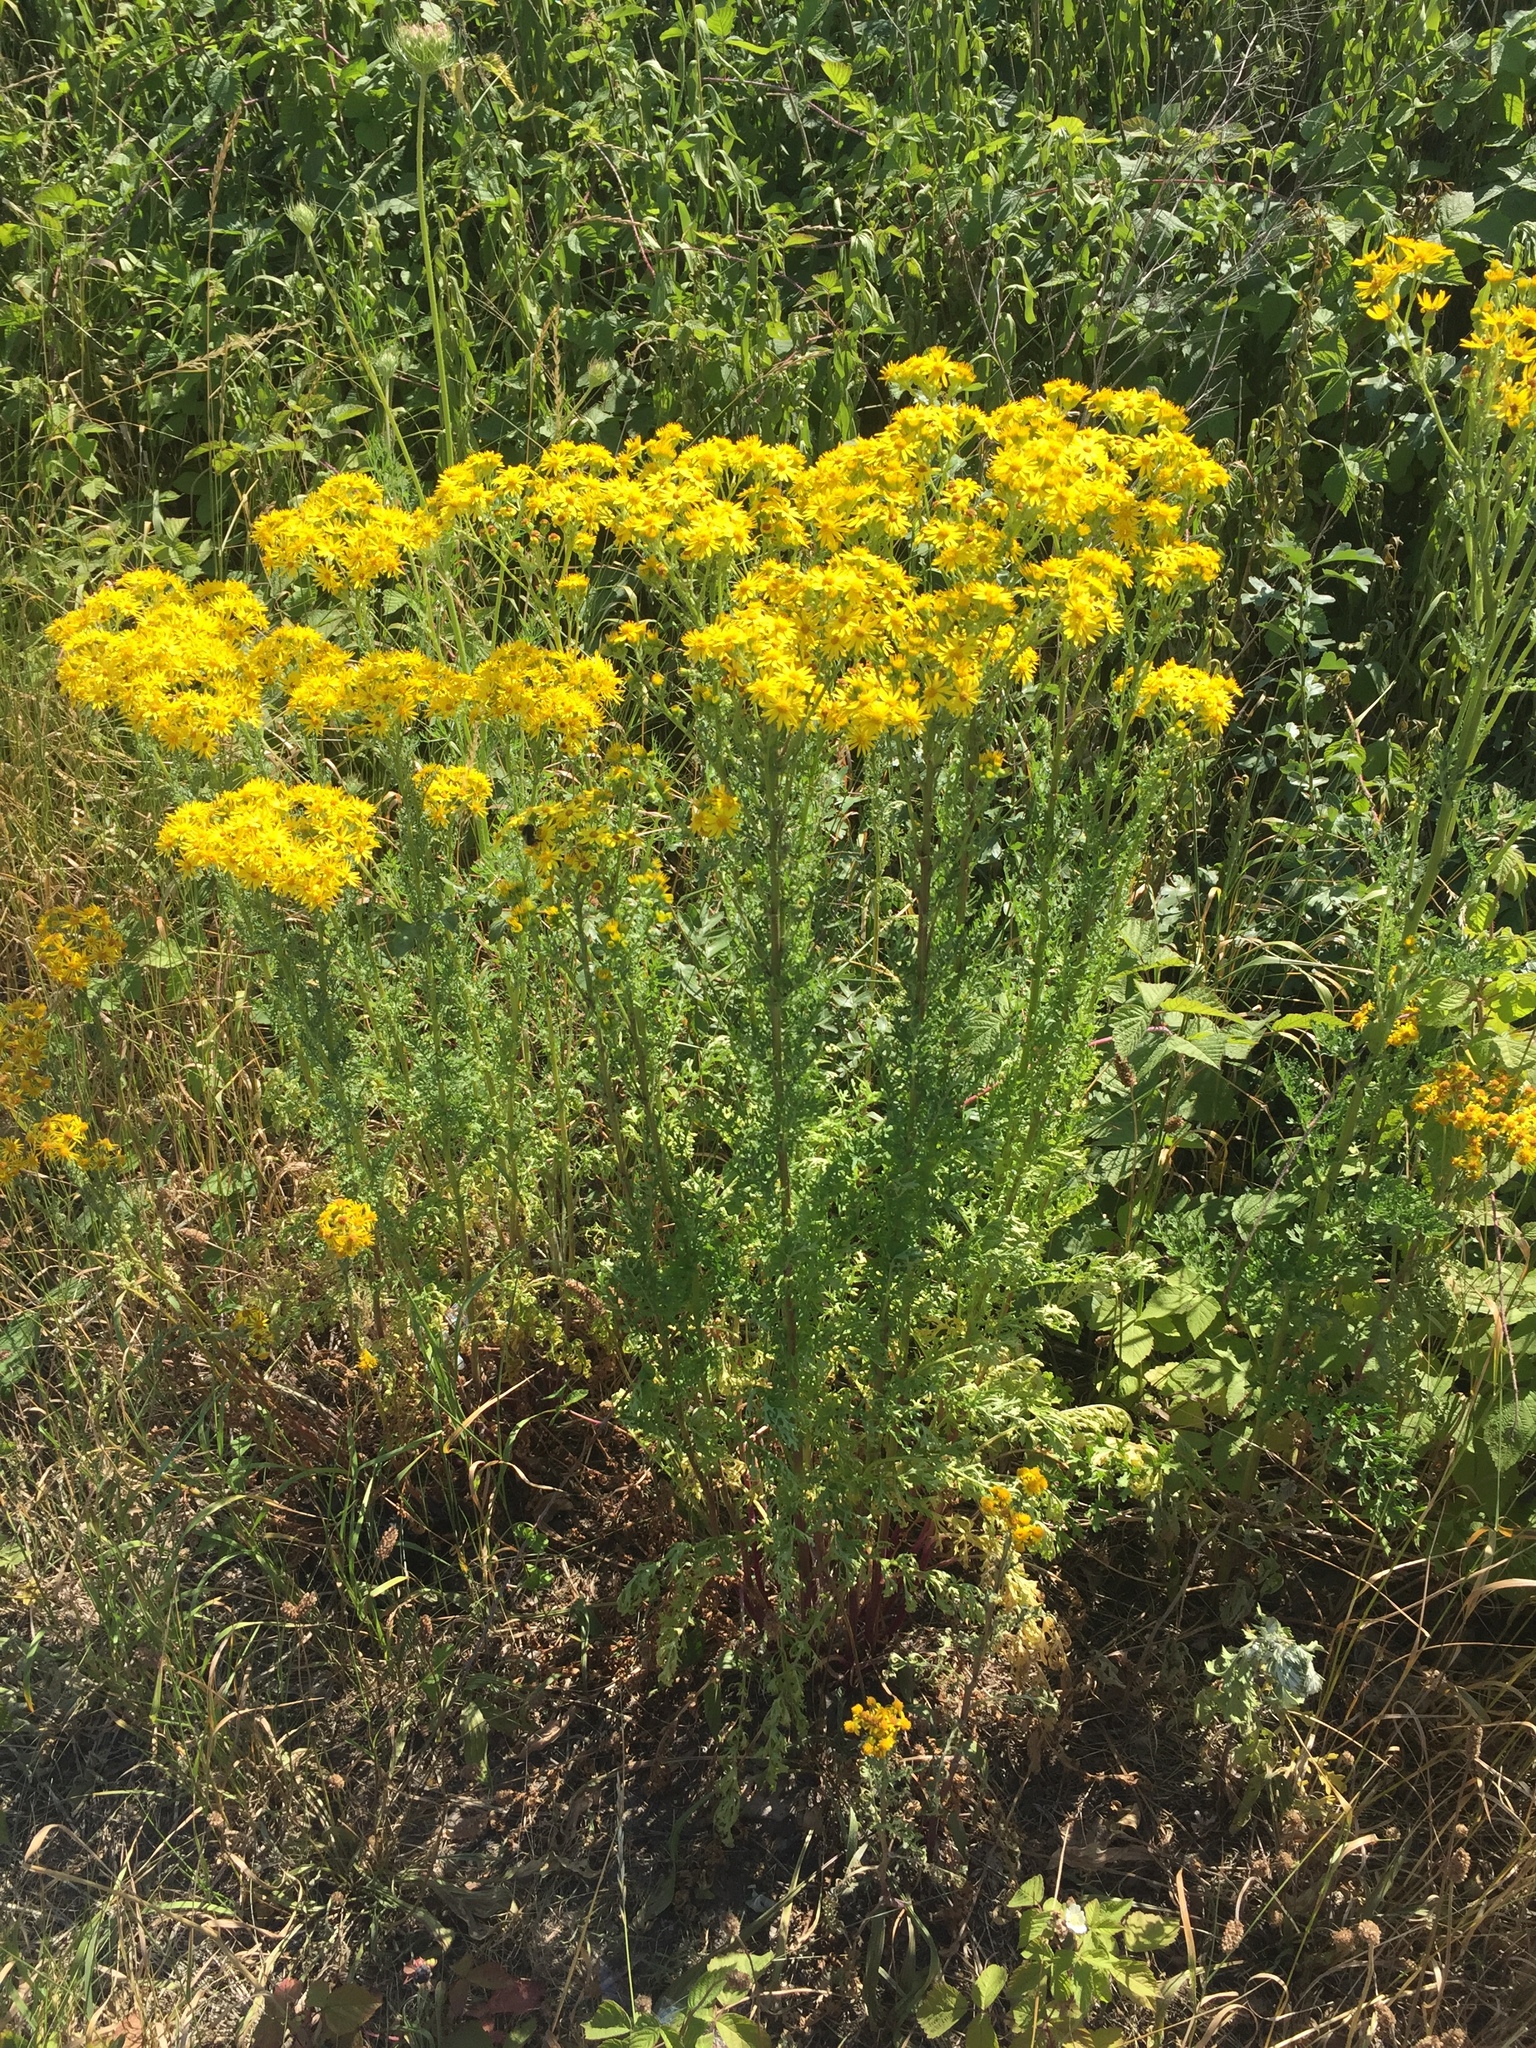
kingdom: Plantae
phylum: Tracheophyta
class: Magnoliopsida
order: Asterales
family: Asteraceae
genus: Jacobaea
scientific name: Jacobaea vulgaris
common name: Stinking willie
